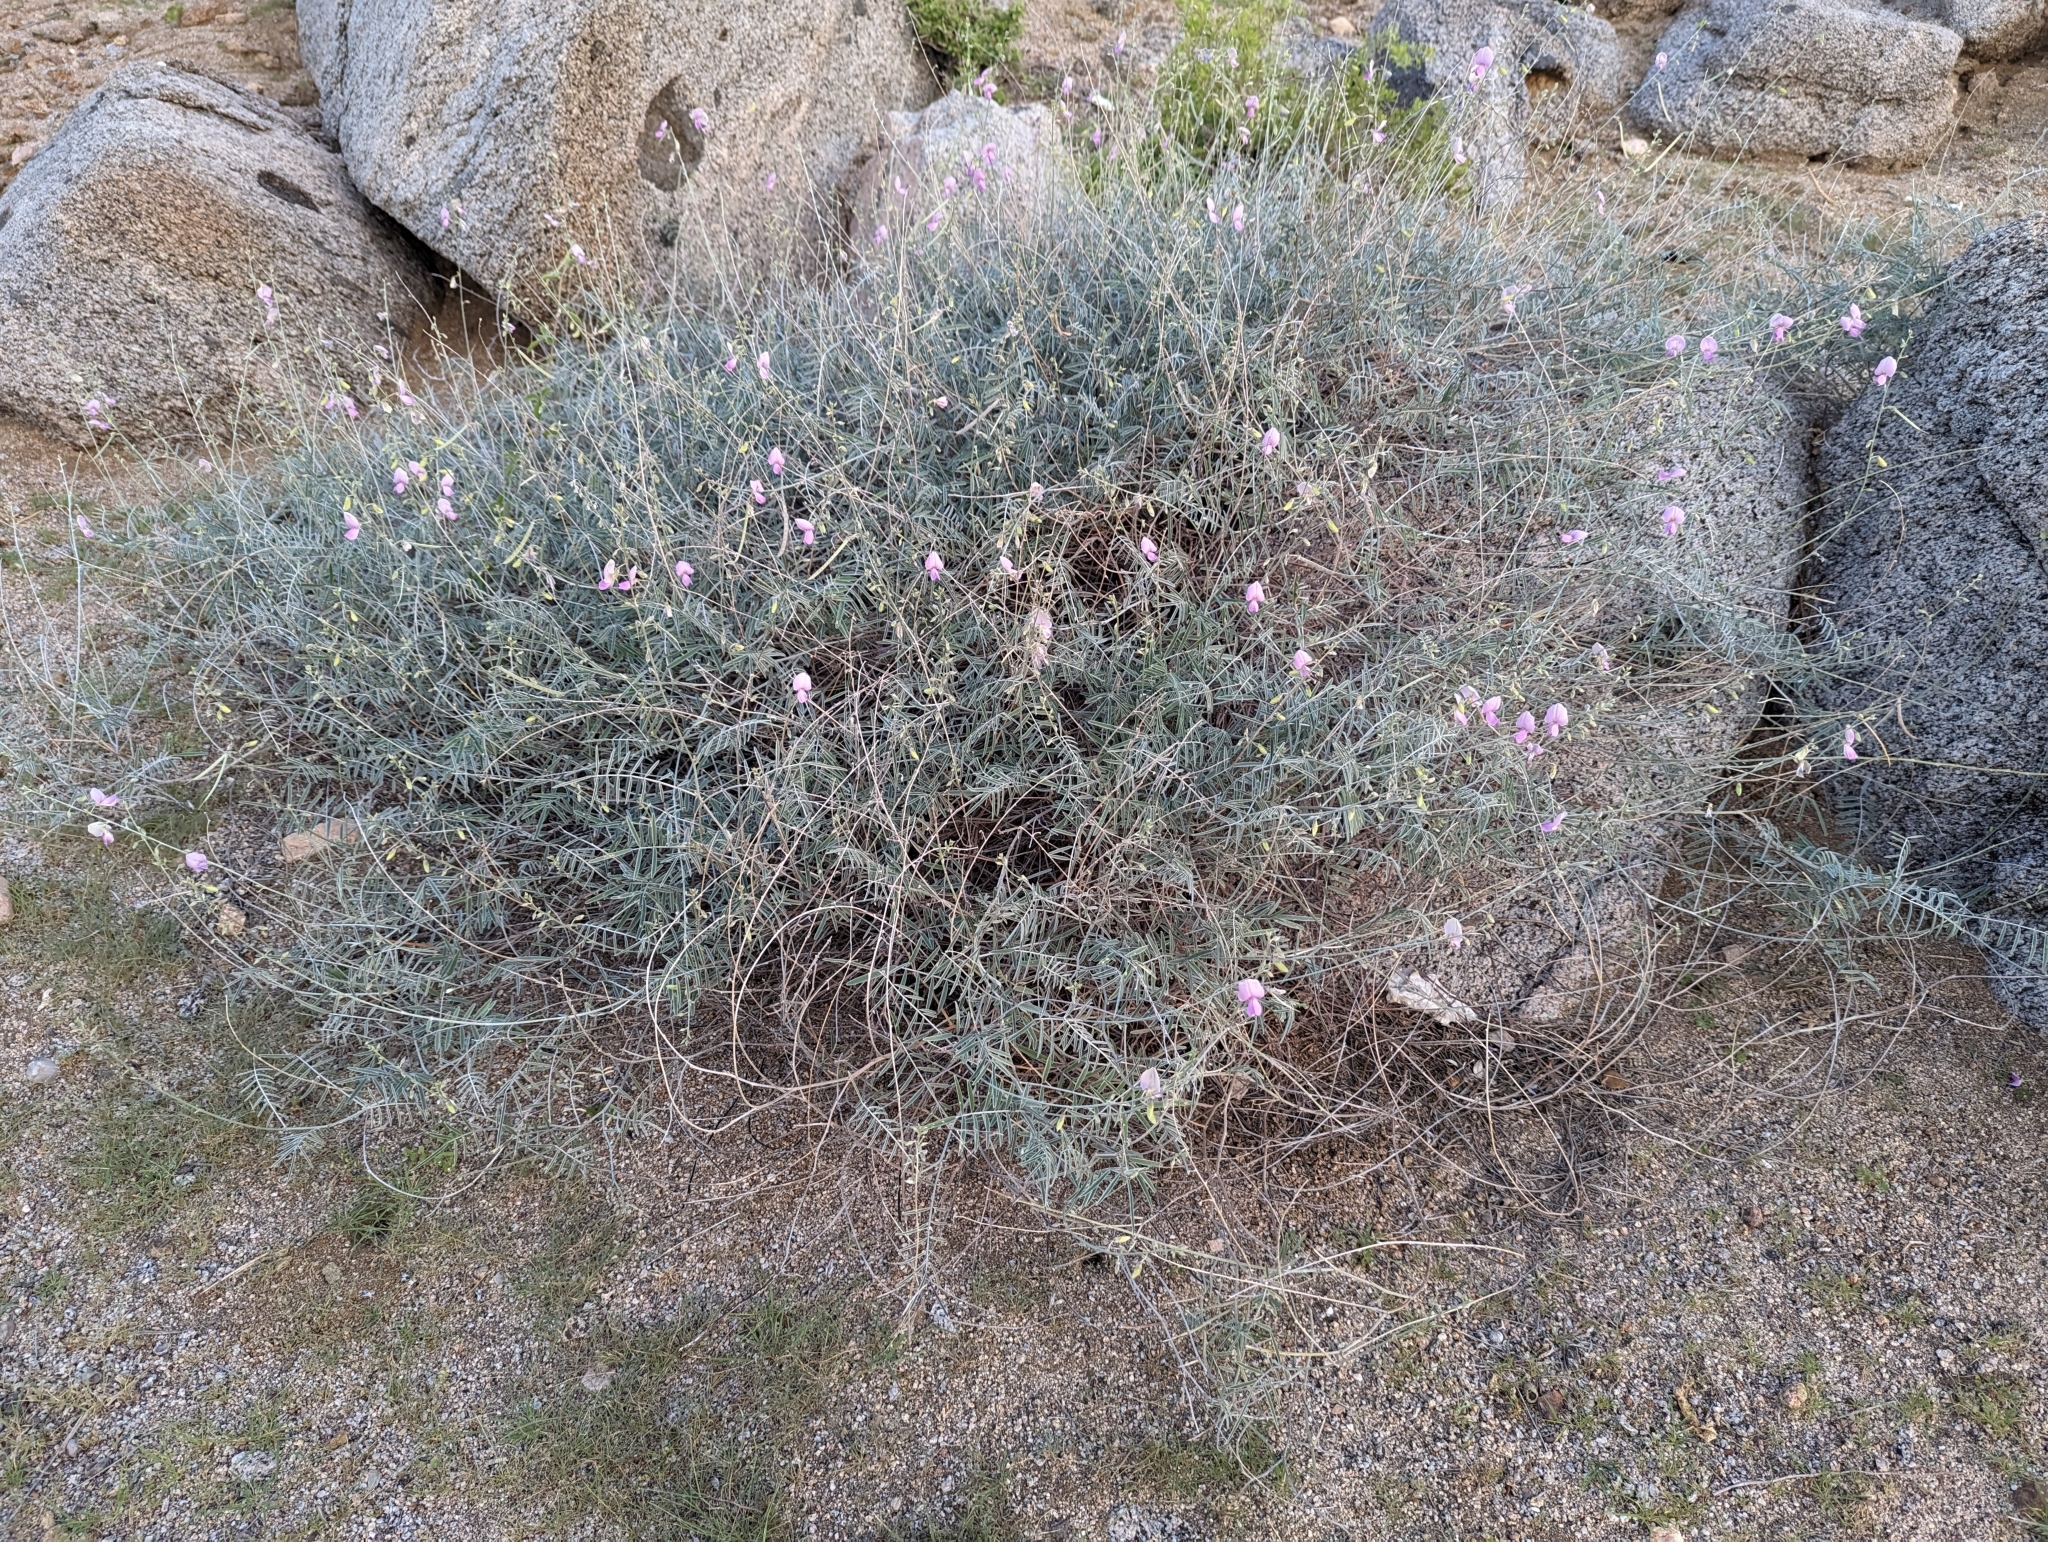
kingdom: Plantae
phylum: Tracheophyta
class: Magnoliopsida
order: Fabales
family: Fabaceae
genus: Tephrosia
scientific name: Tephrosia palmeri
